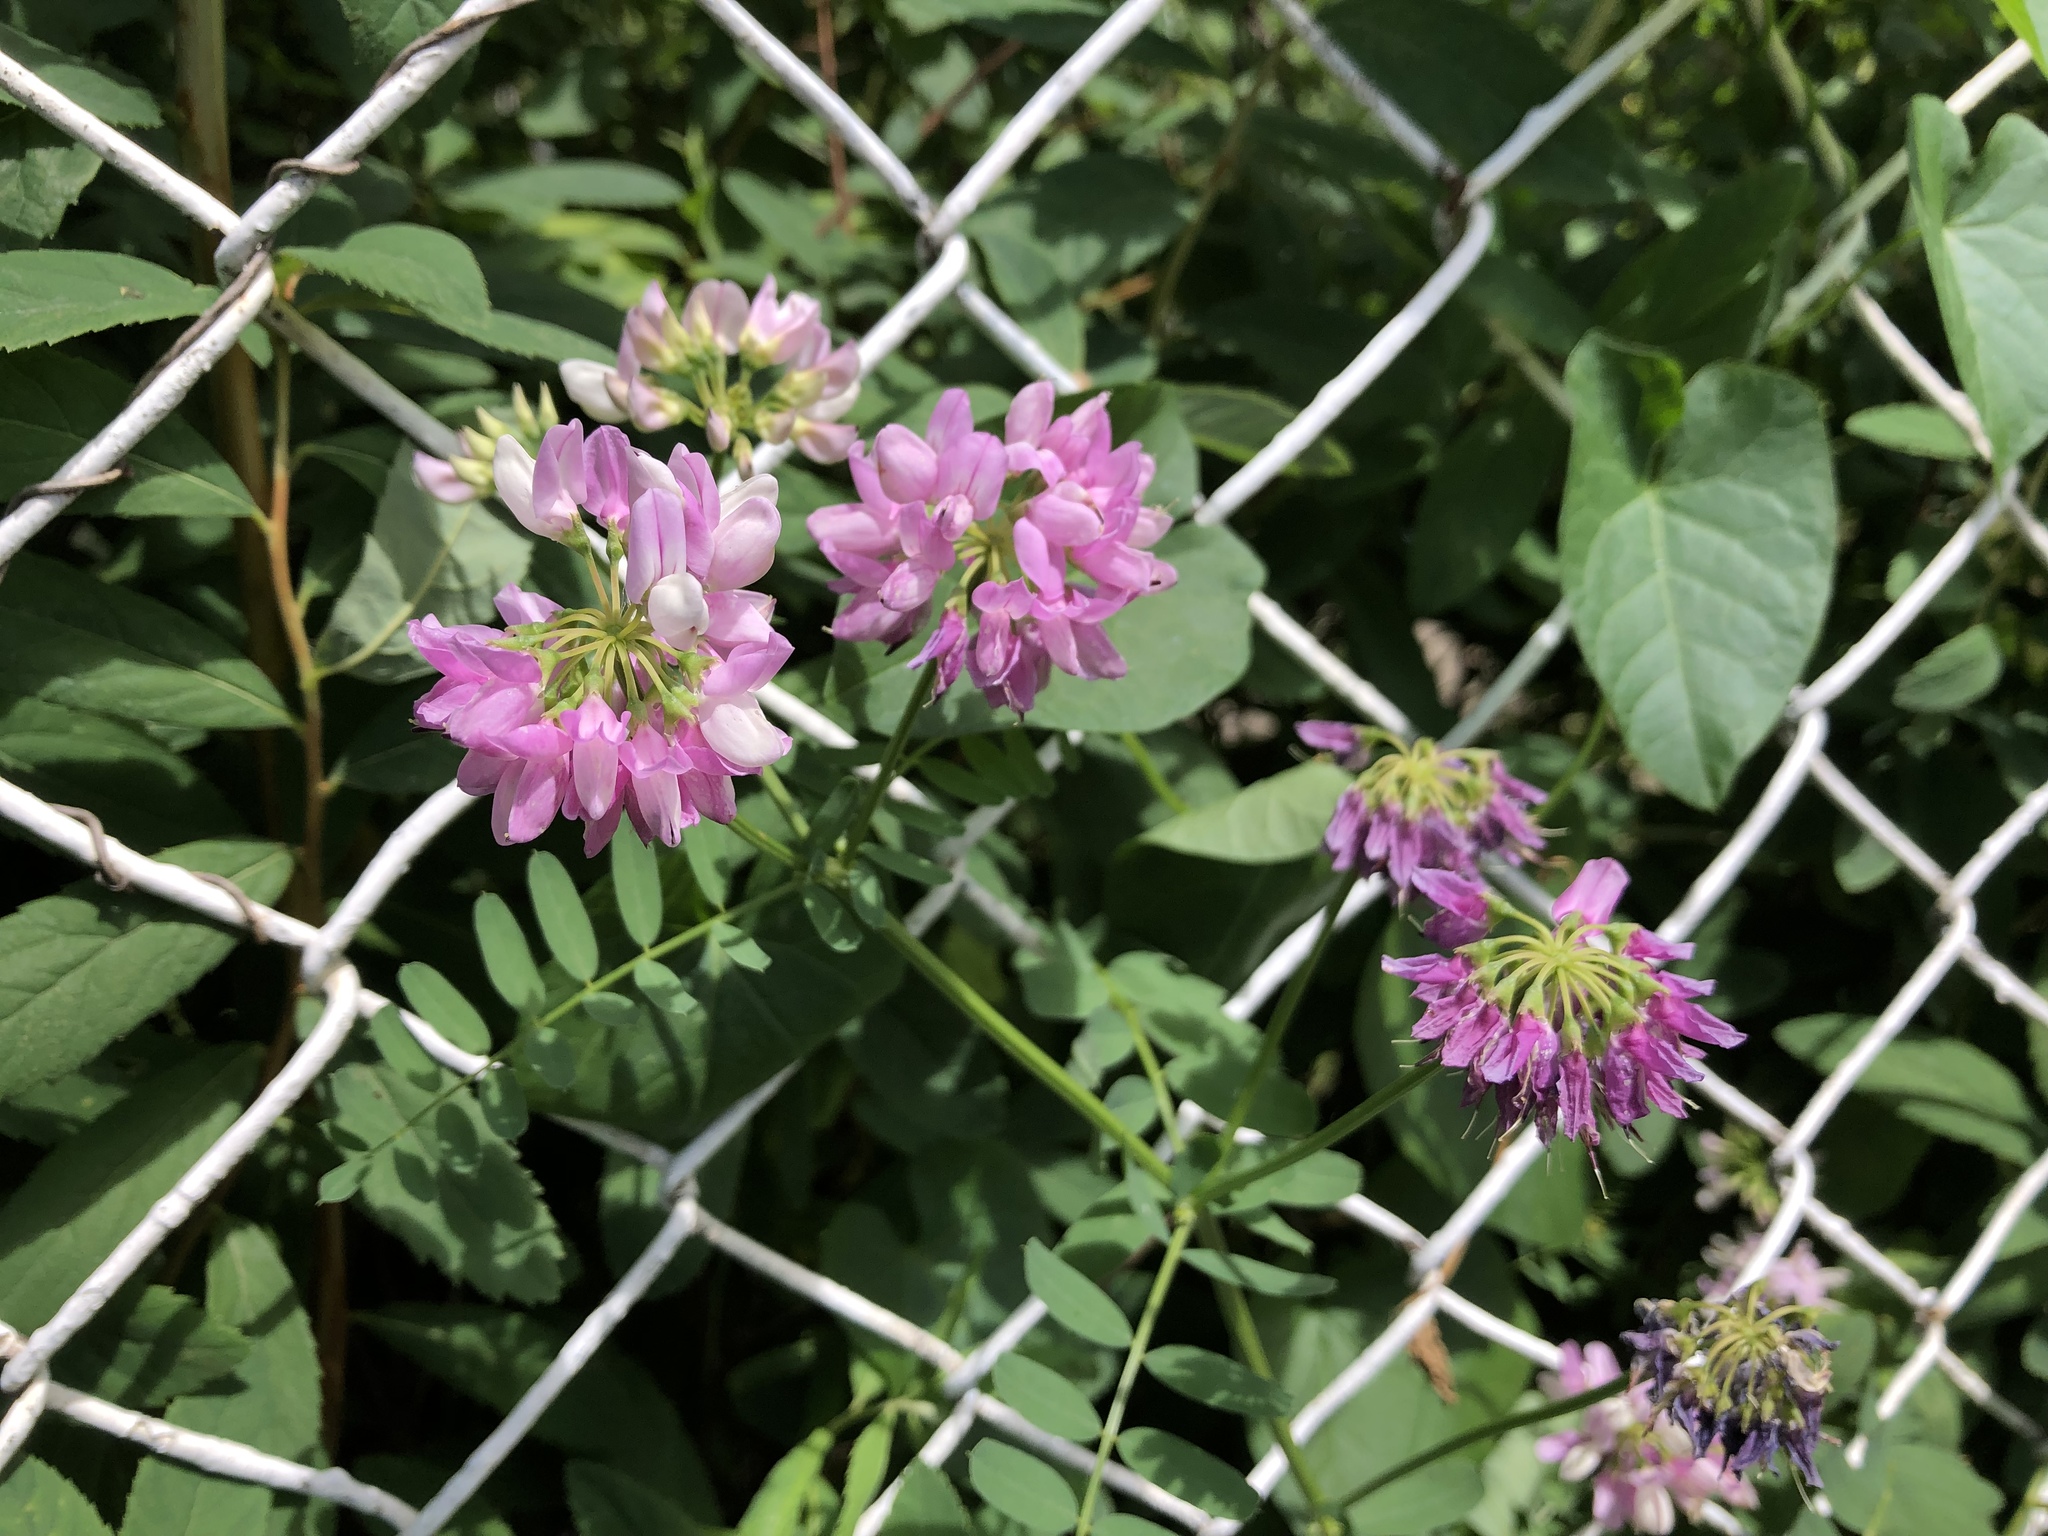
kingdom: Plantae
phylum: Tracheophyta
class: Magnoliopsida
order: Fabales
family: Fabaceae
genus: Coronilla
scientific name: Coronilla varia
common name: Crownvetch
